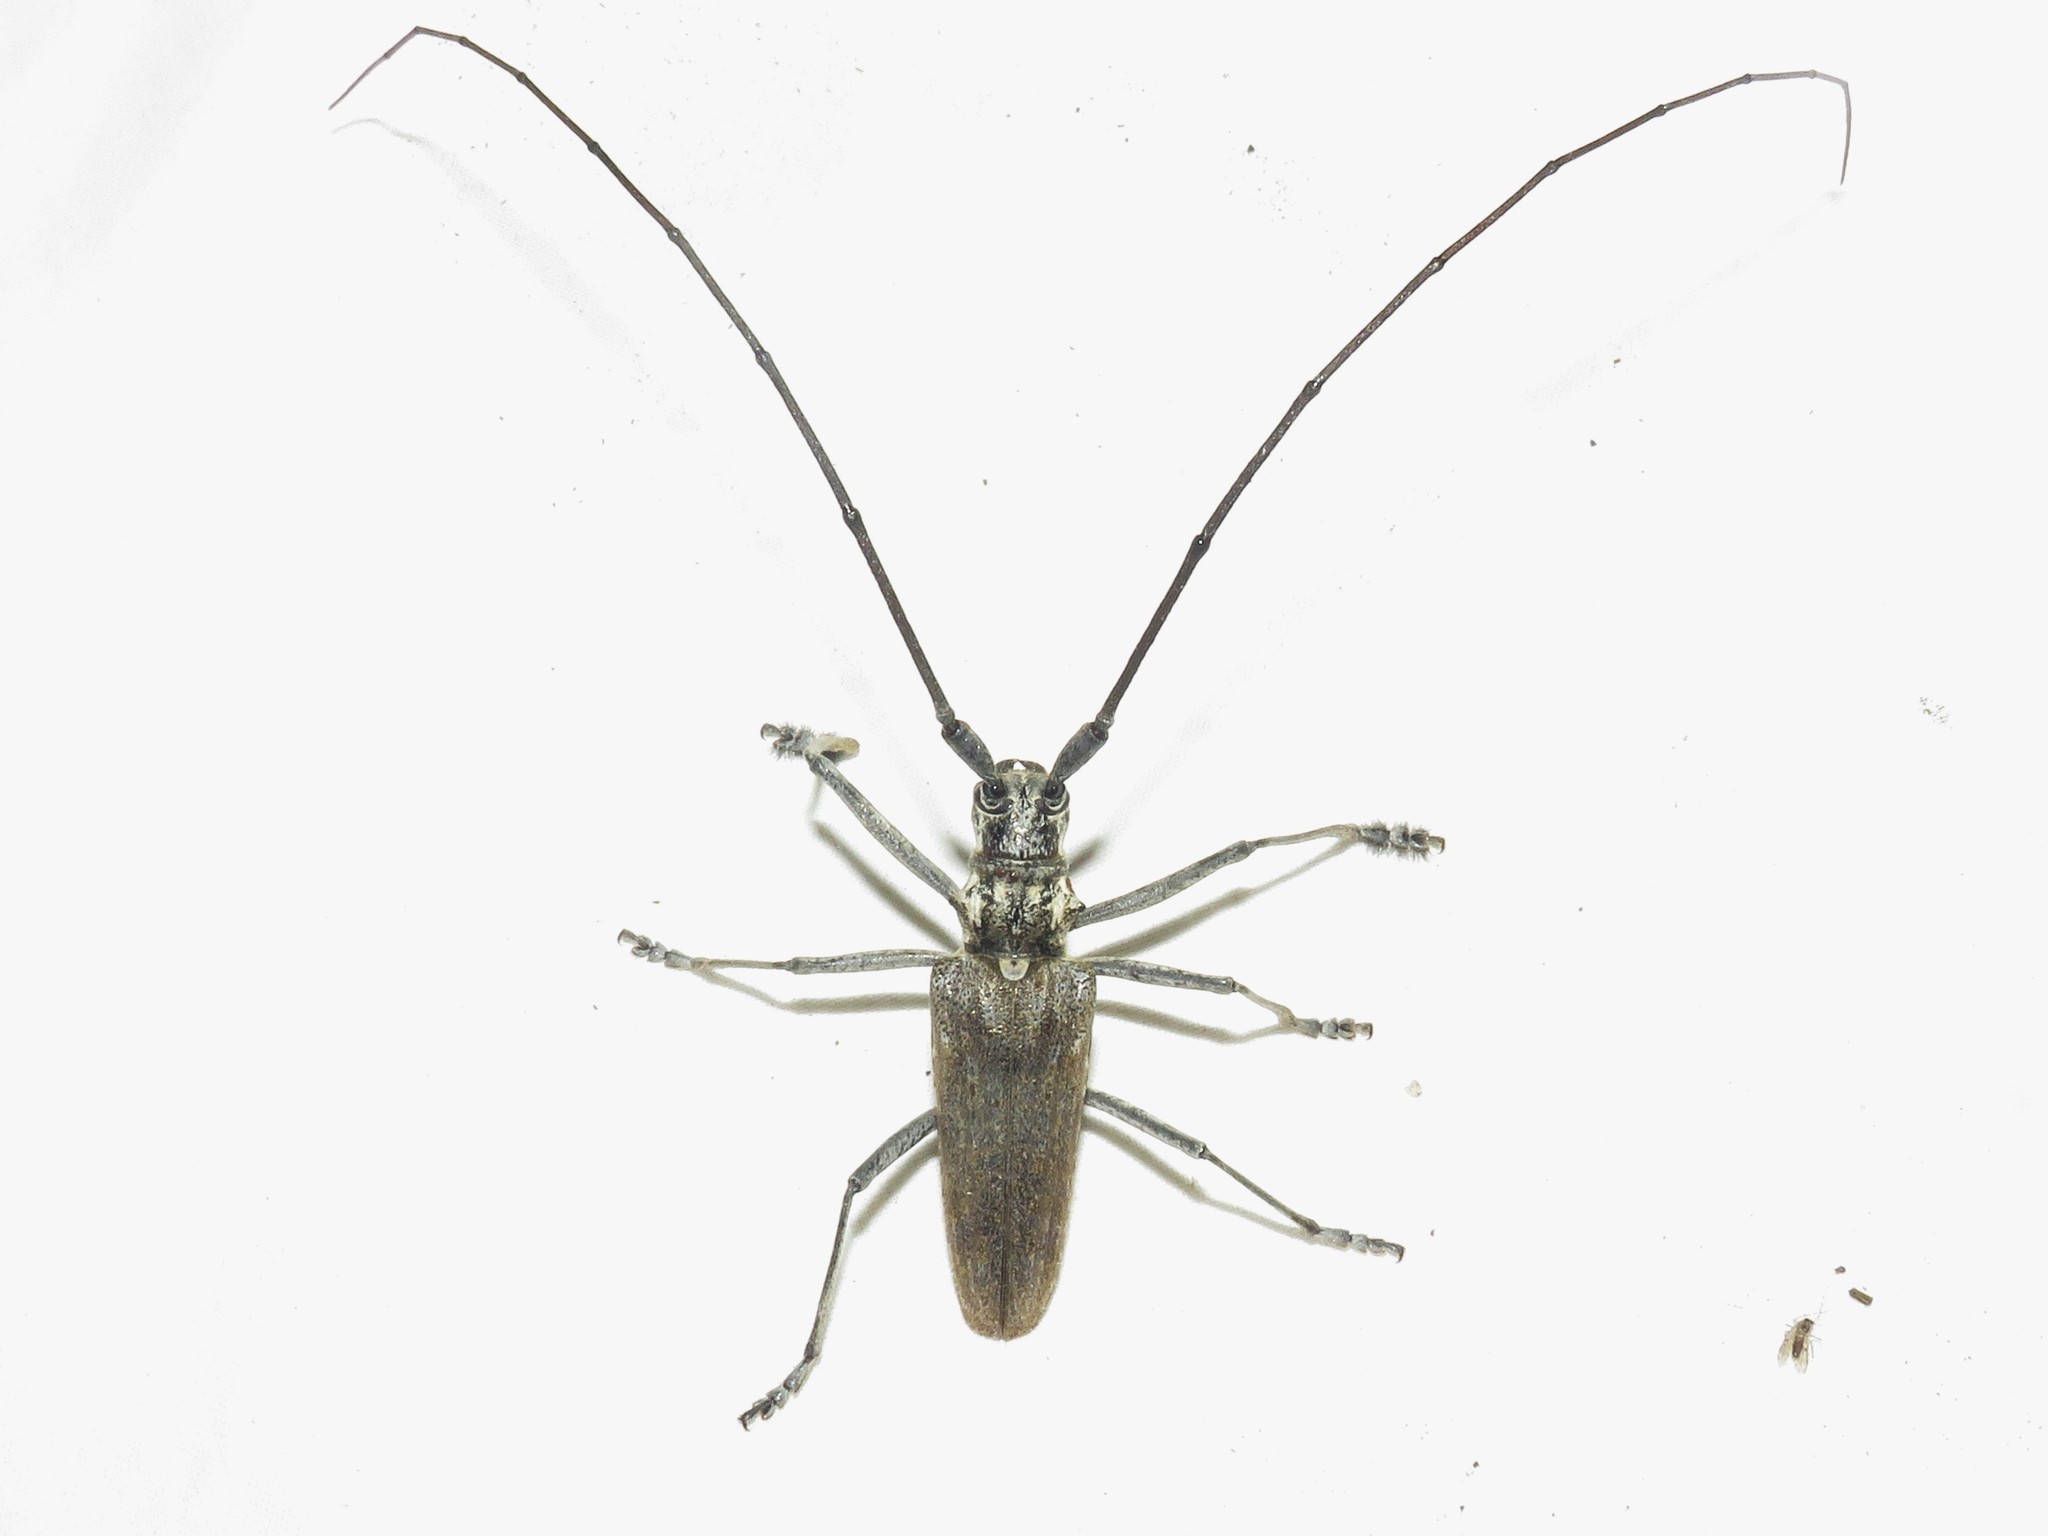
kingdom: Animalia
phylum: Arthropoda
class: Insecta
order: Coleoptera
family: Cerambycidae
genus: Monochamus
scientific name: Monochamus notatus
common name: Northeastern pine sawyer beetle
